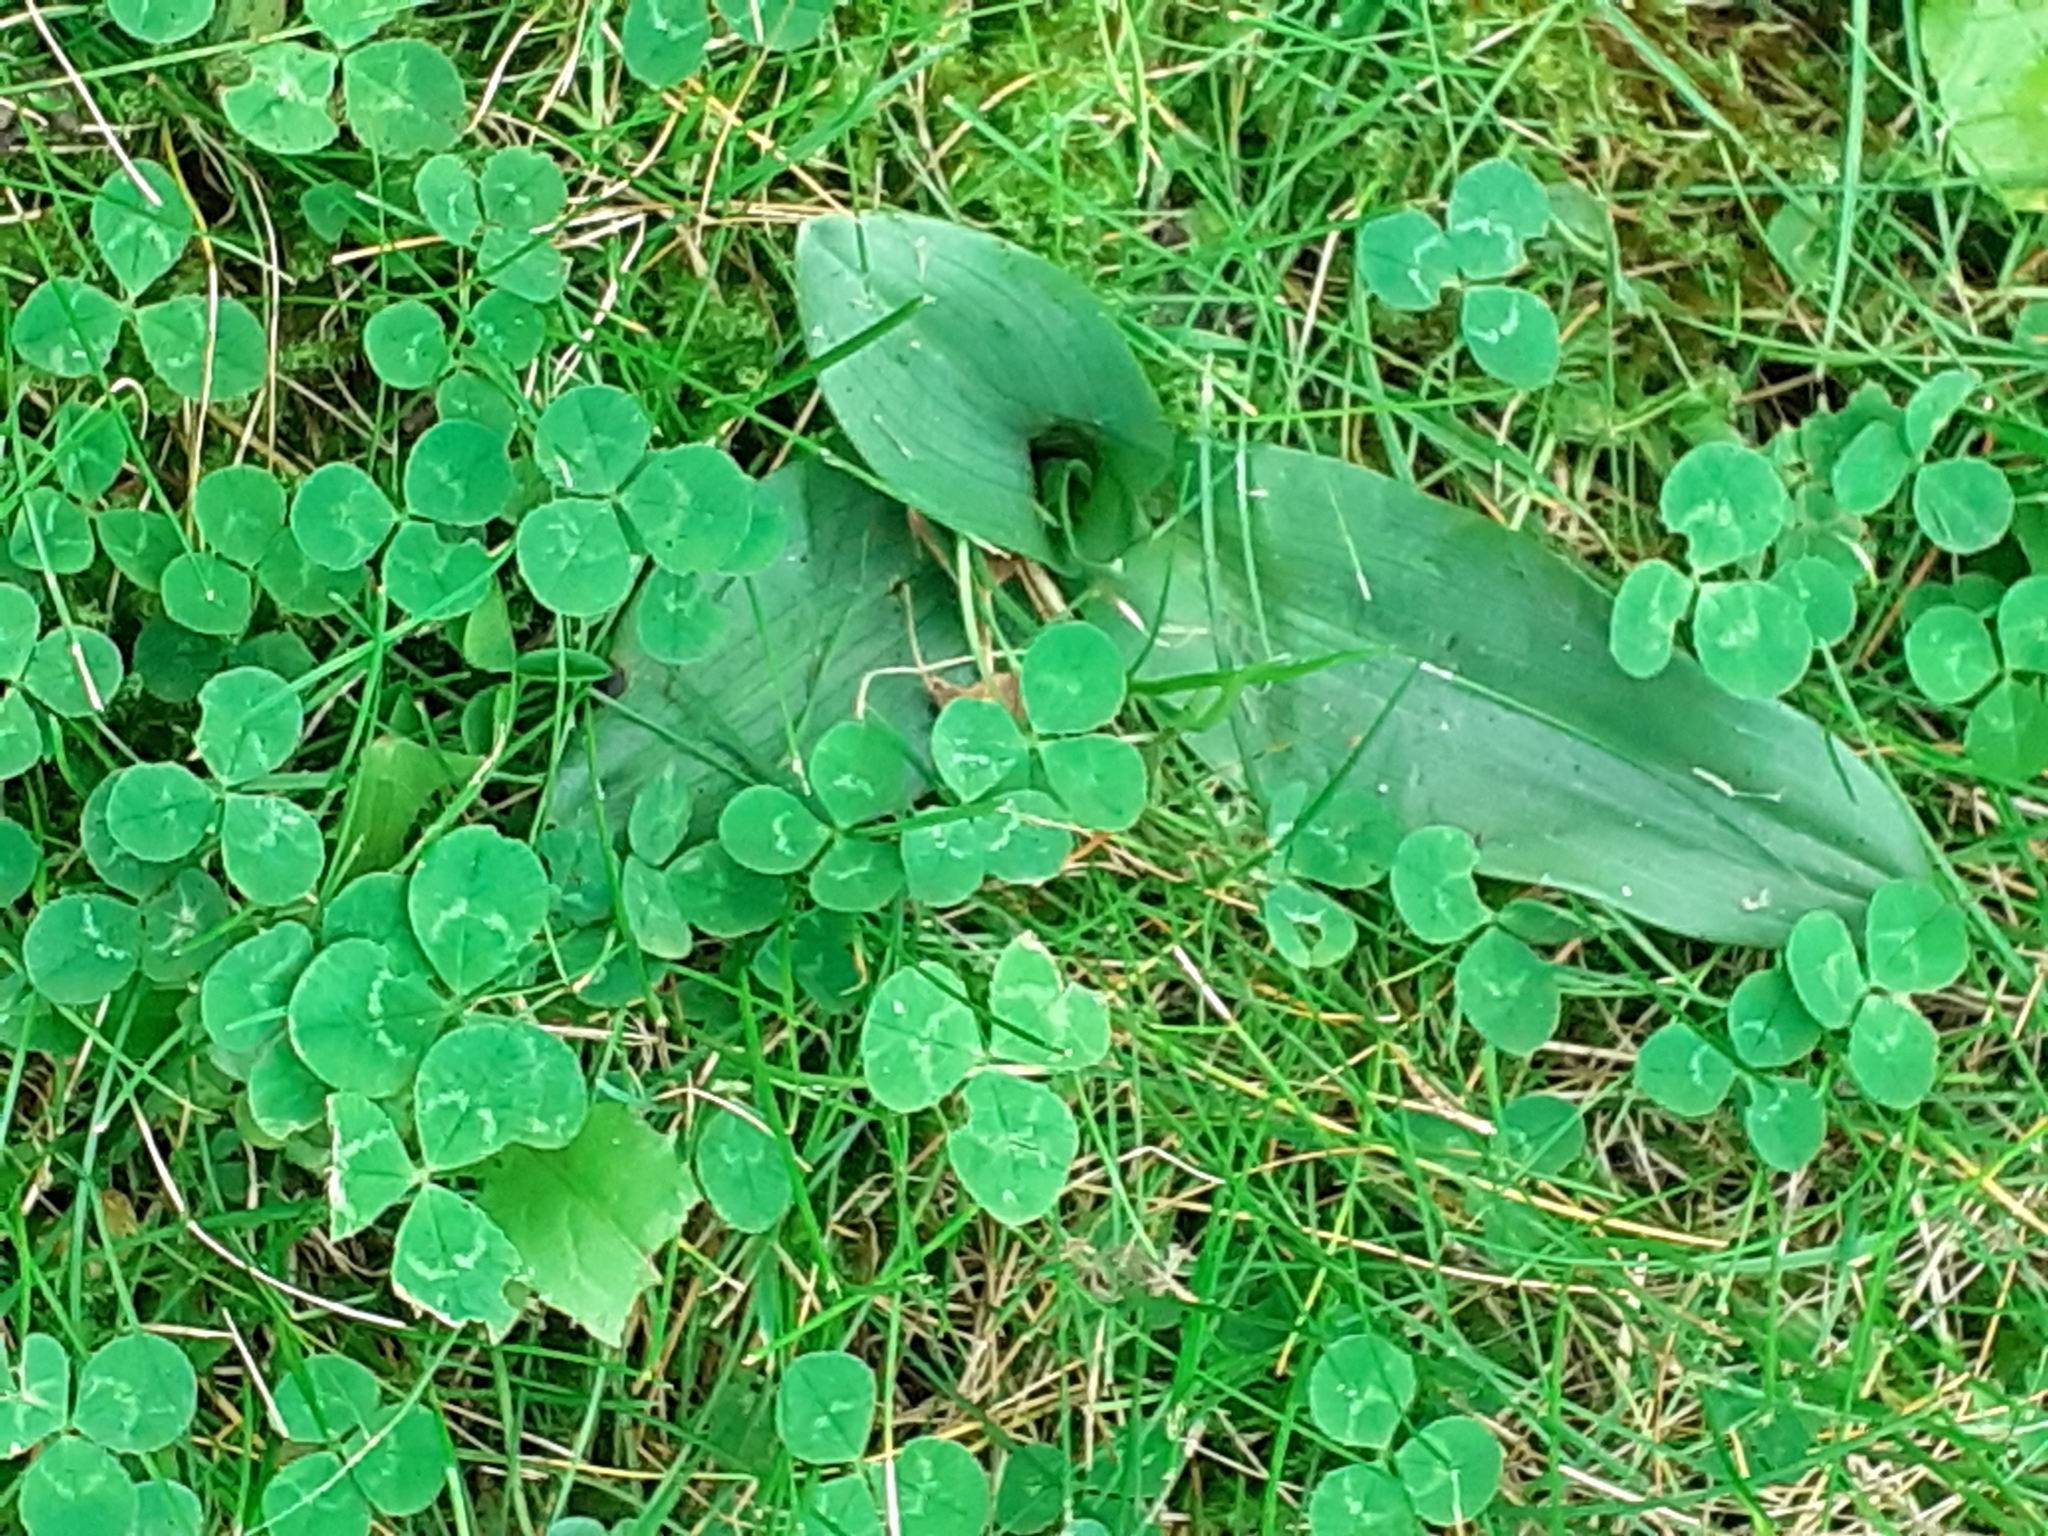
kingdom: Plantae
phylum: Tracheophyta
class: Liliopsida
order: Asparagales
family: Orchidaceae
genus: Ophrys
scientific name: Ophrys apifera
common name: Bee orchid
